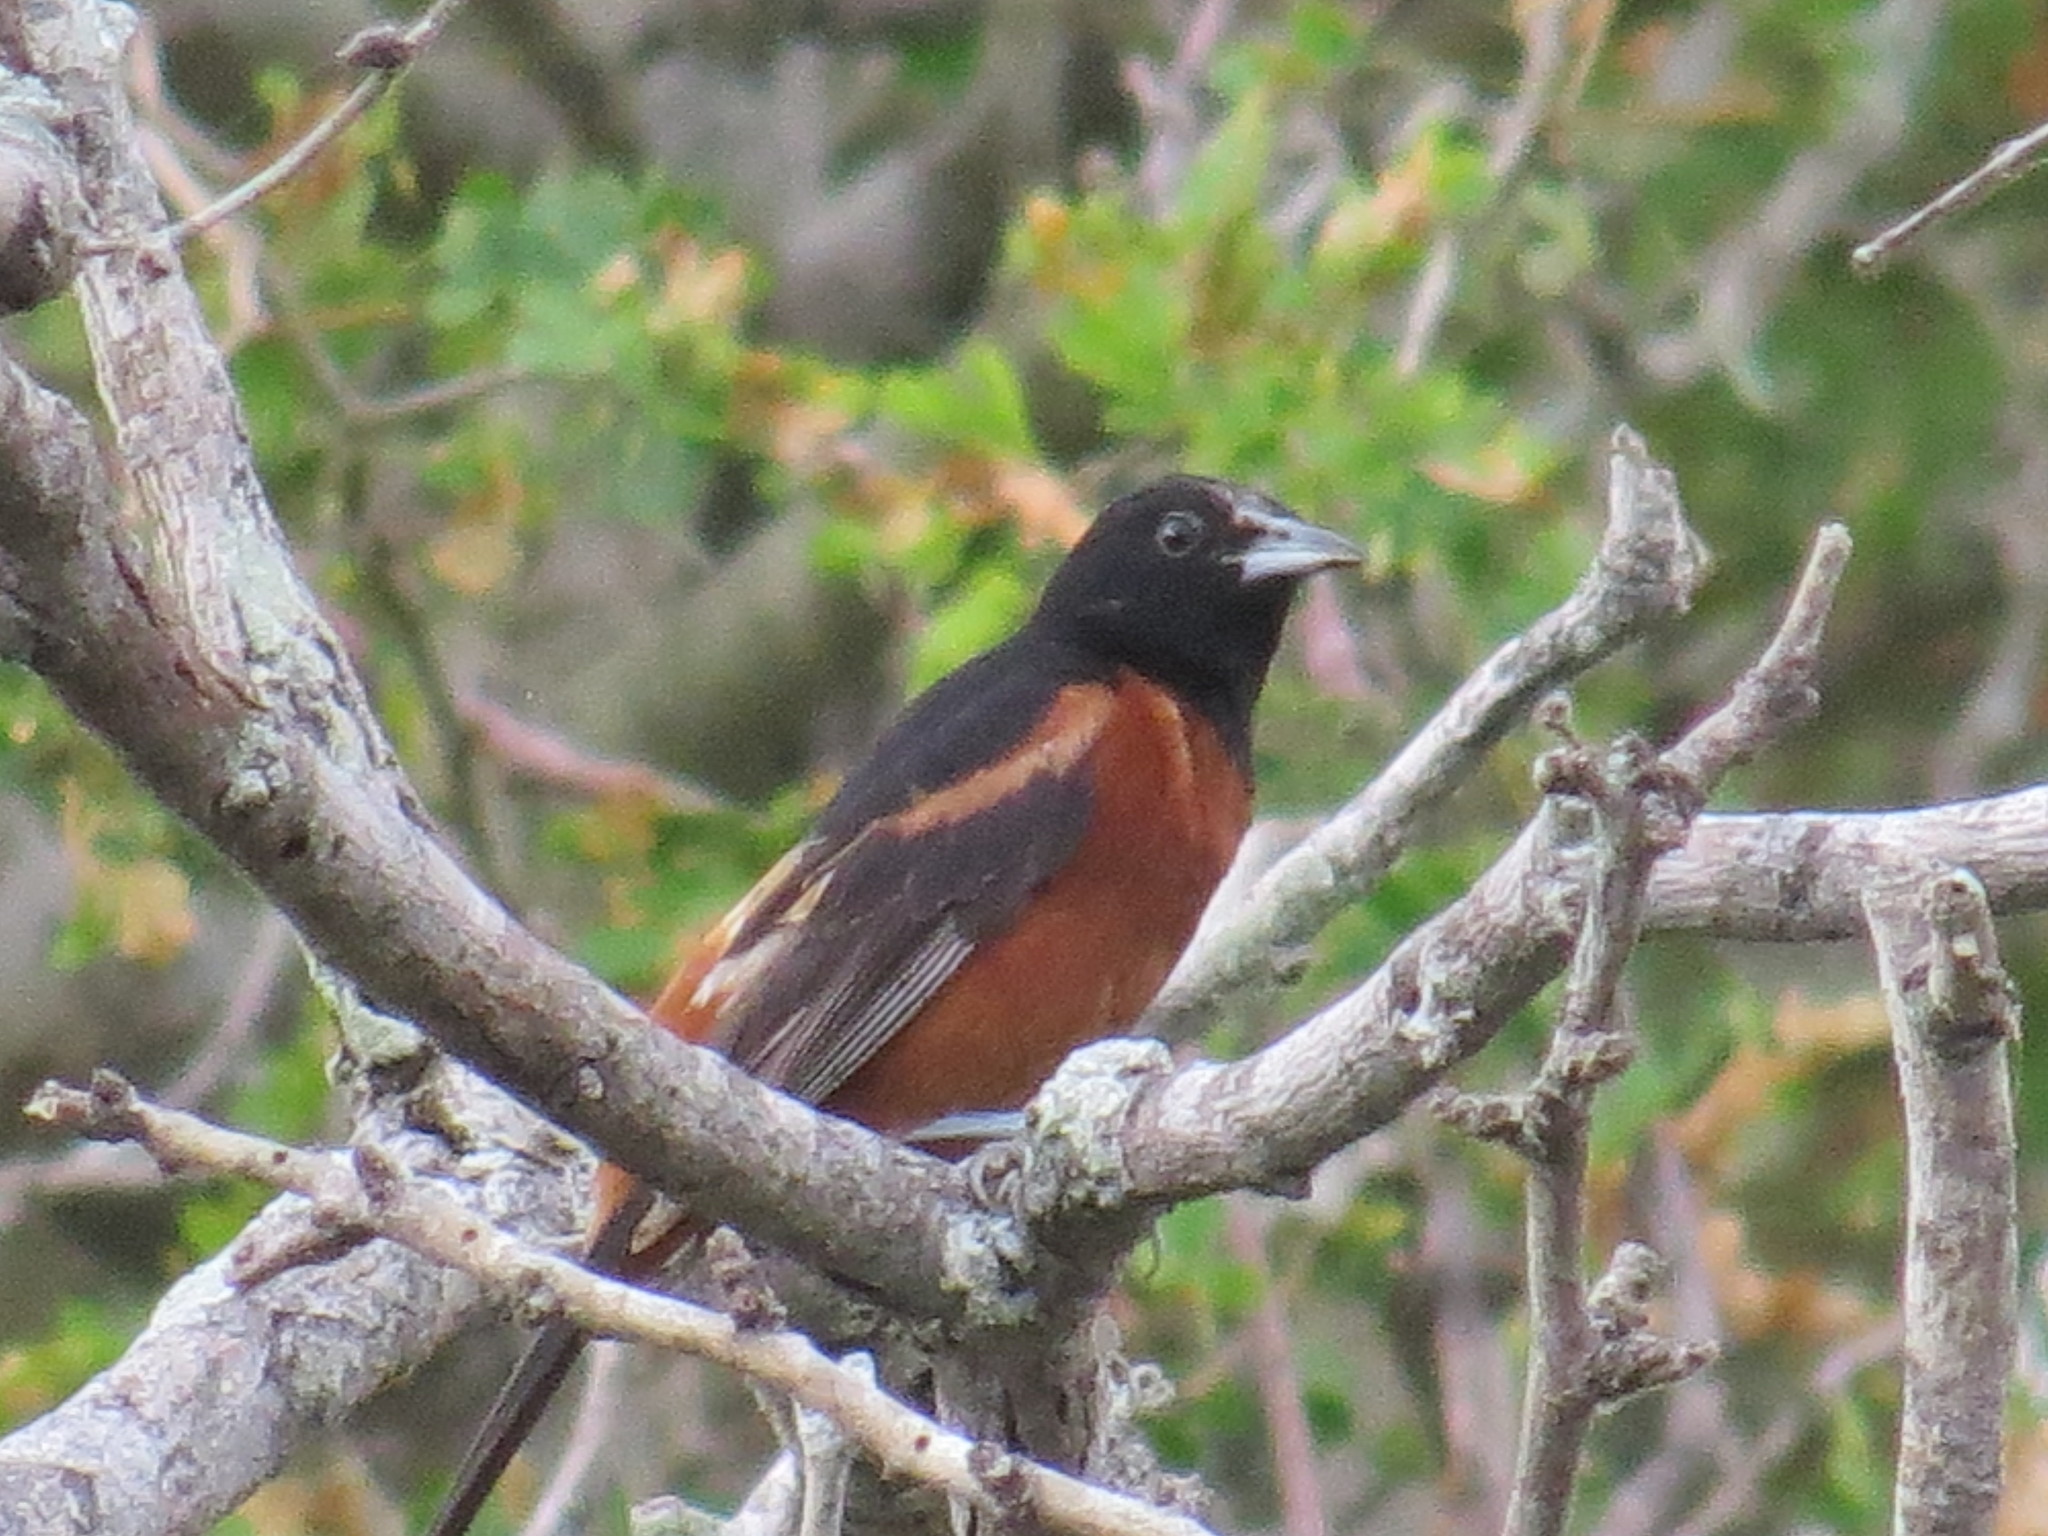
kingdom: Animalia
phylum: Chordata
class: Aves
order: Passeriformes
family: Icteridae
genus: Icterus
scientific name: Icterus spurius
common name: Orchard oriole
